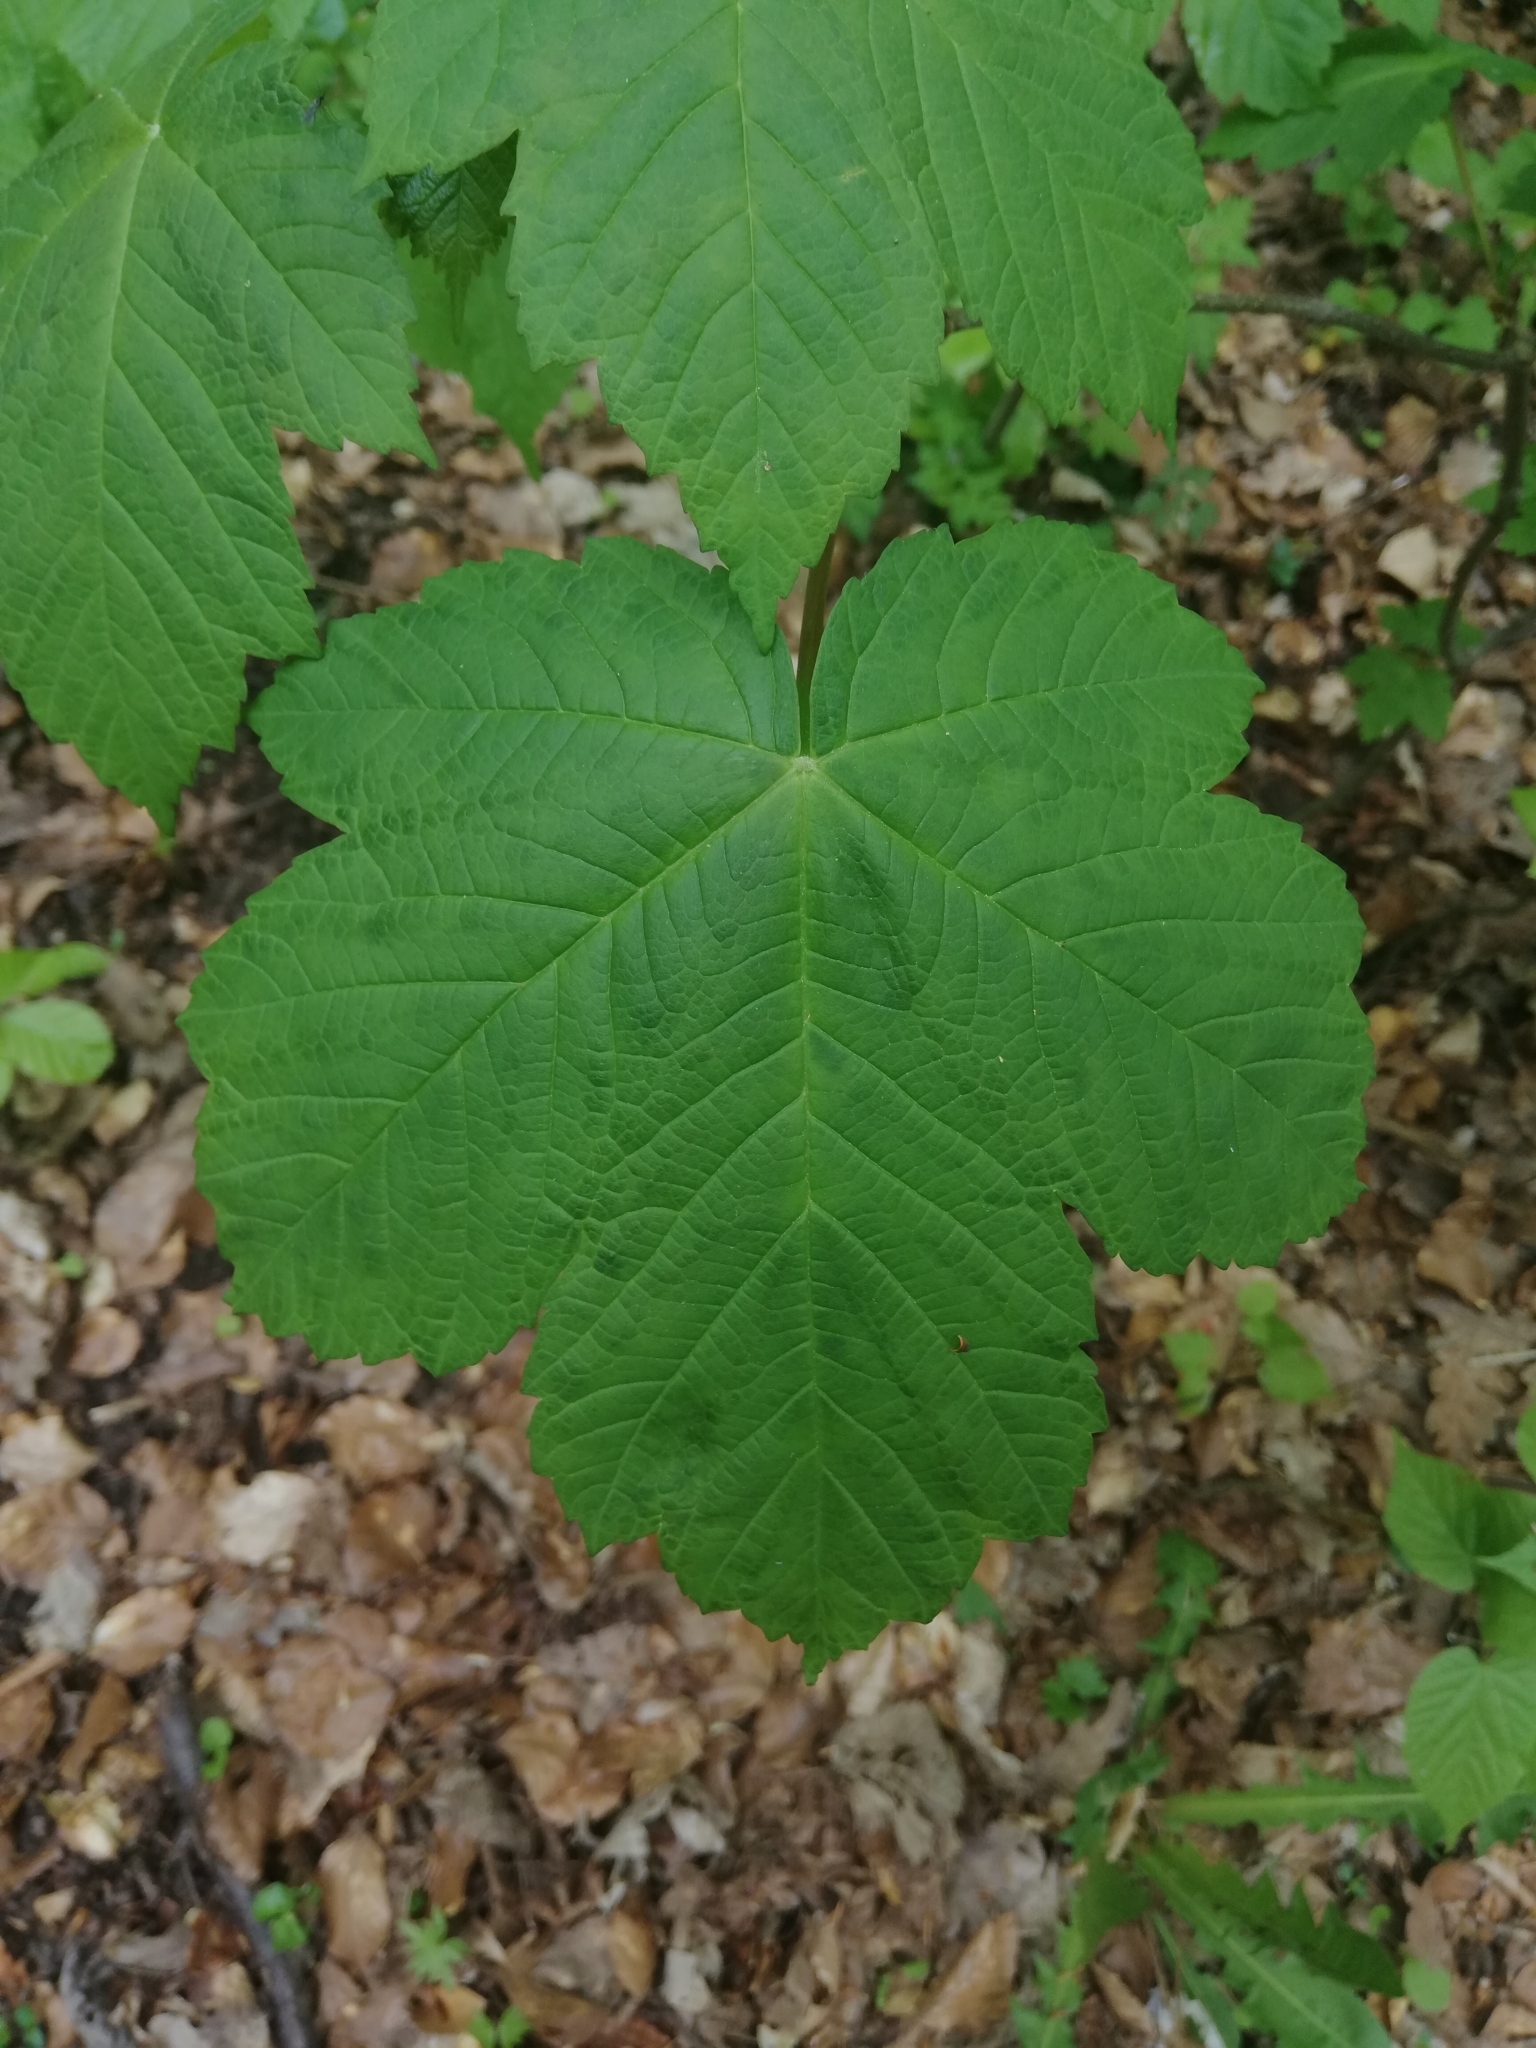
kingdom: Plantae
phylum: Tracheophyta
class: Magnoliopsida
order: Sapindales
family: Sapindaceae
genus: Acer
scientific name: Acer pseudoplatanus
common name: Sycamore
